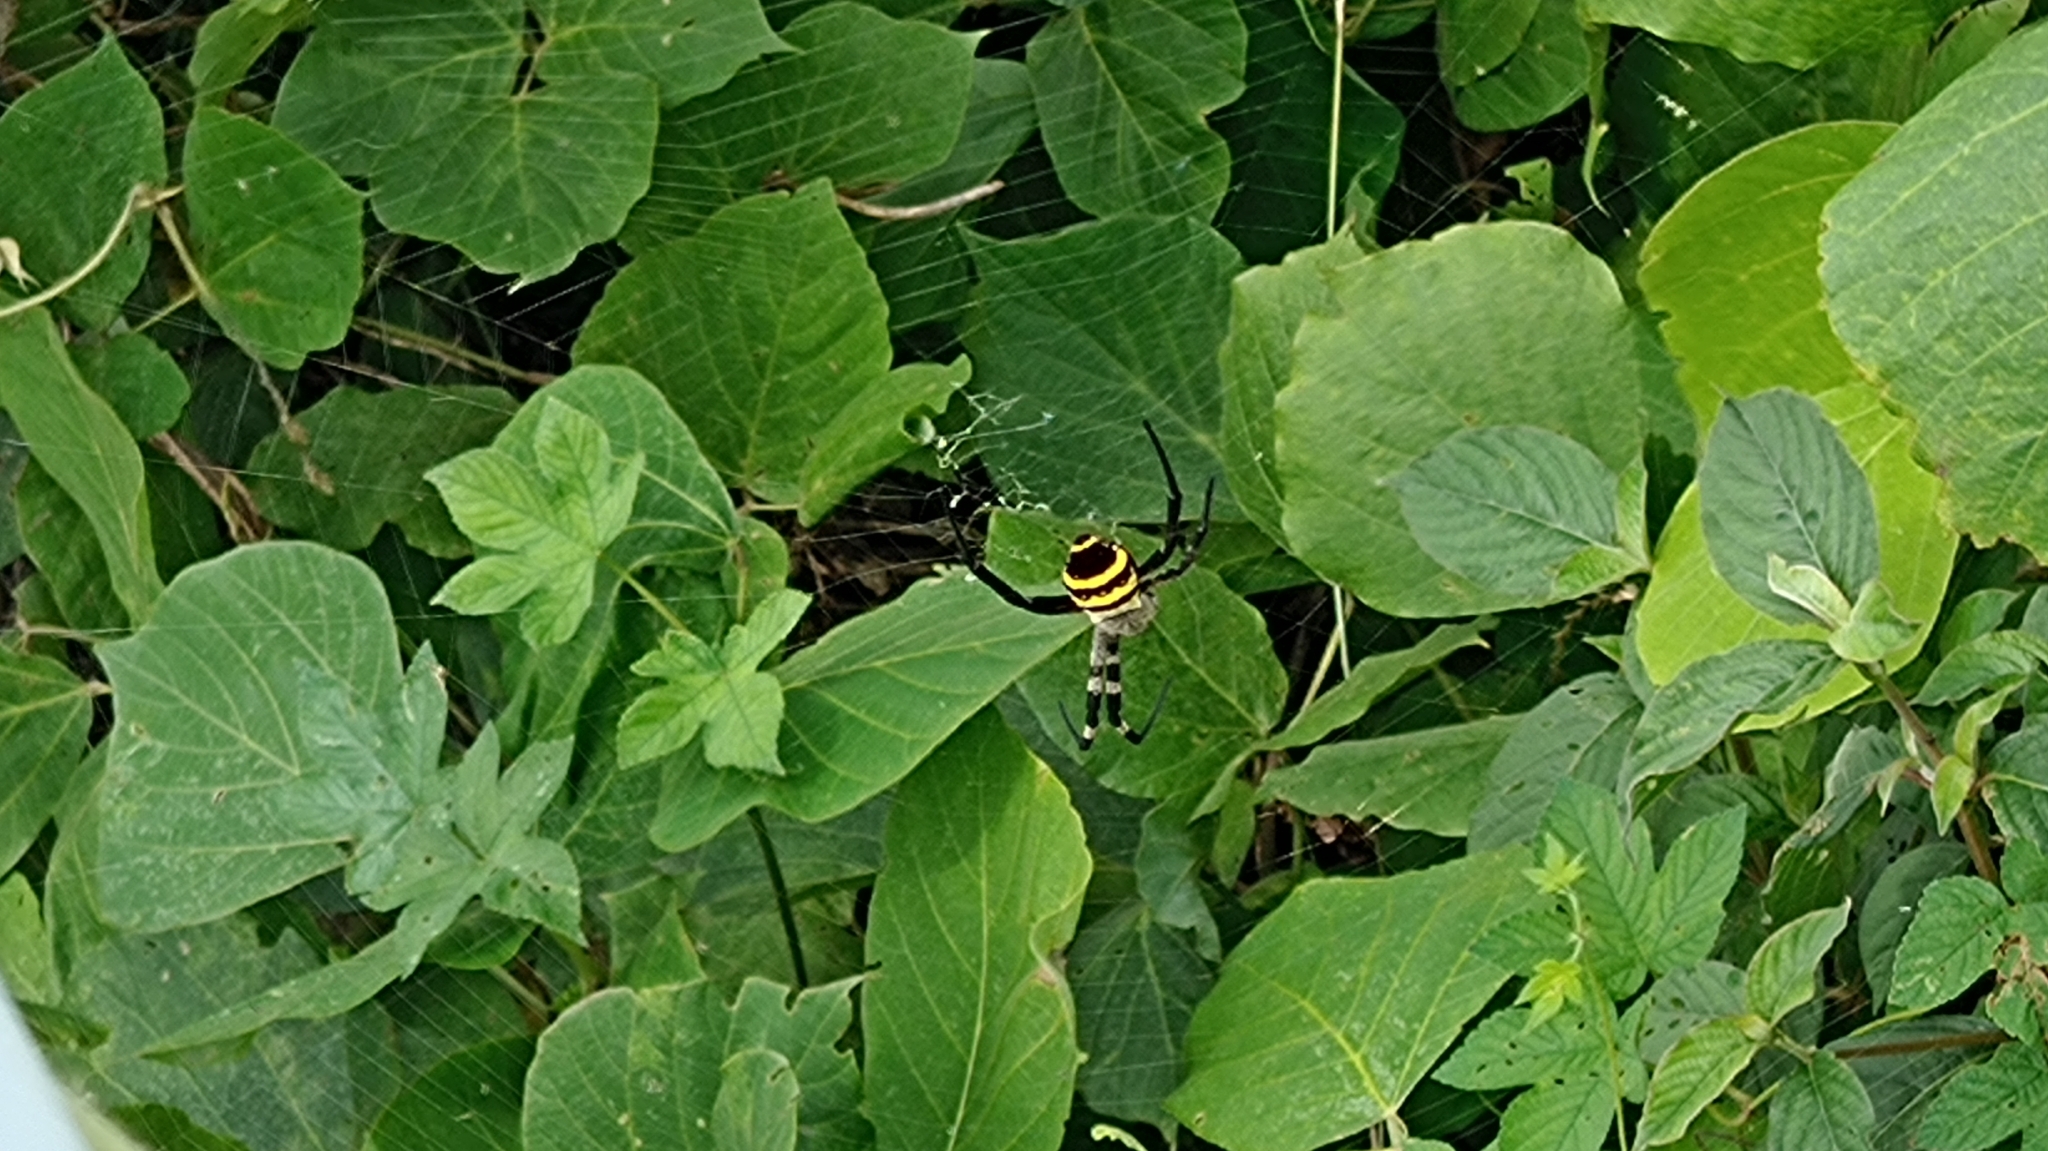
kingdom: Animalia
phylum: Arthropoda
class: Arachnida
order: Araneae
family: Araneidae
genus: Argiope
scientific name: Argiope amoena
